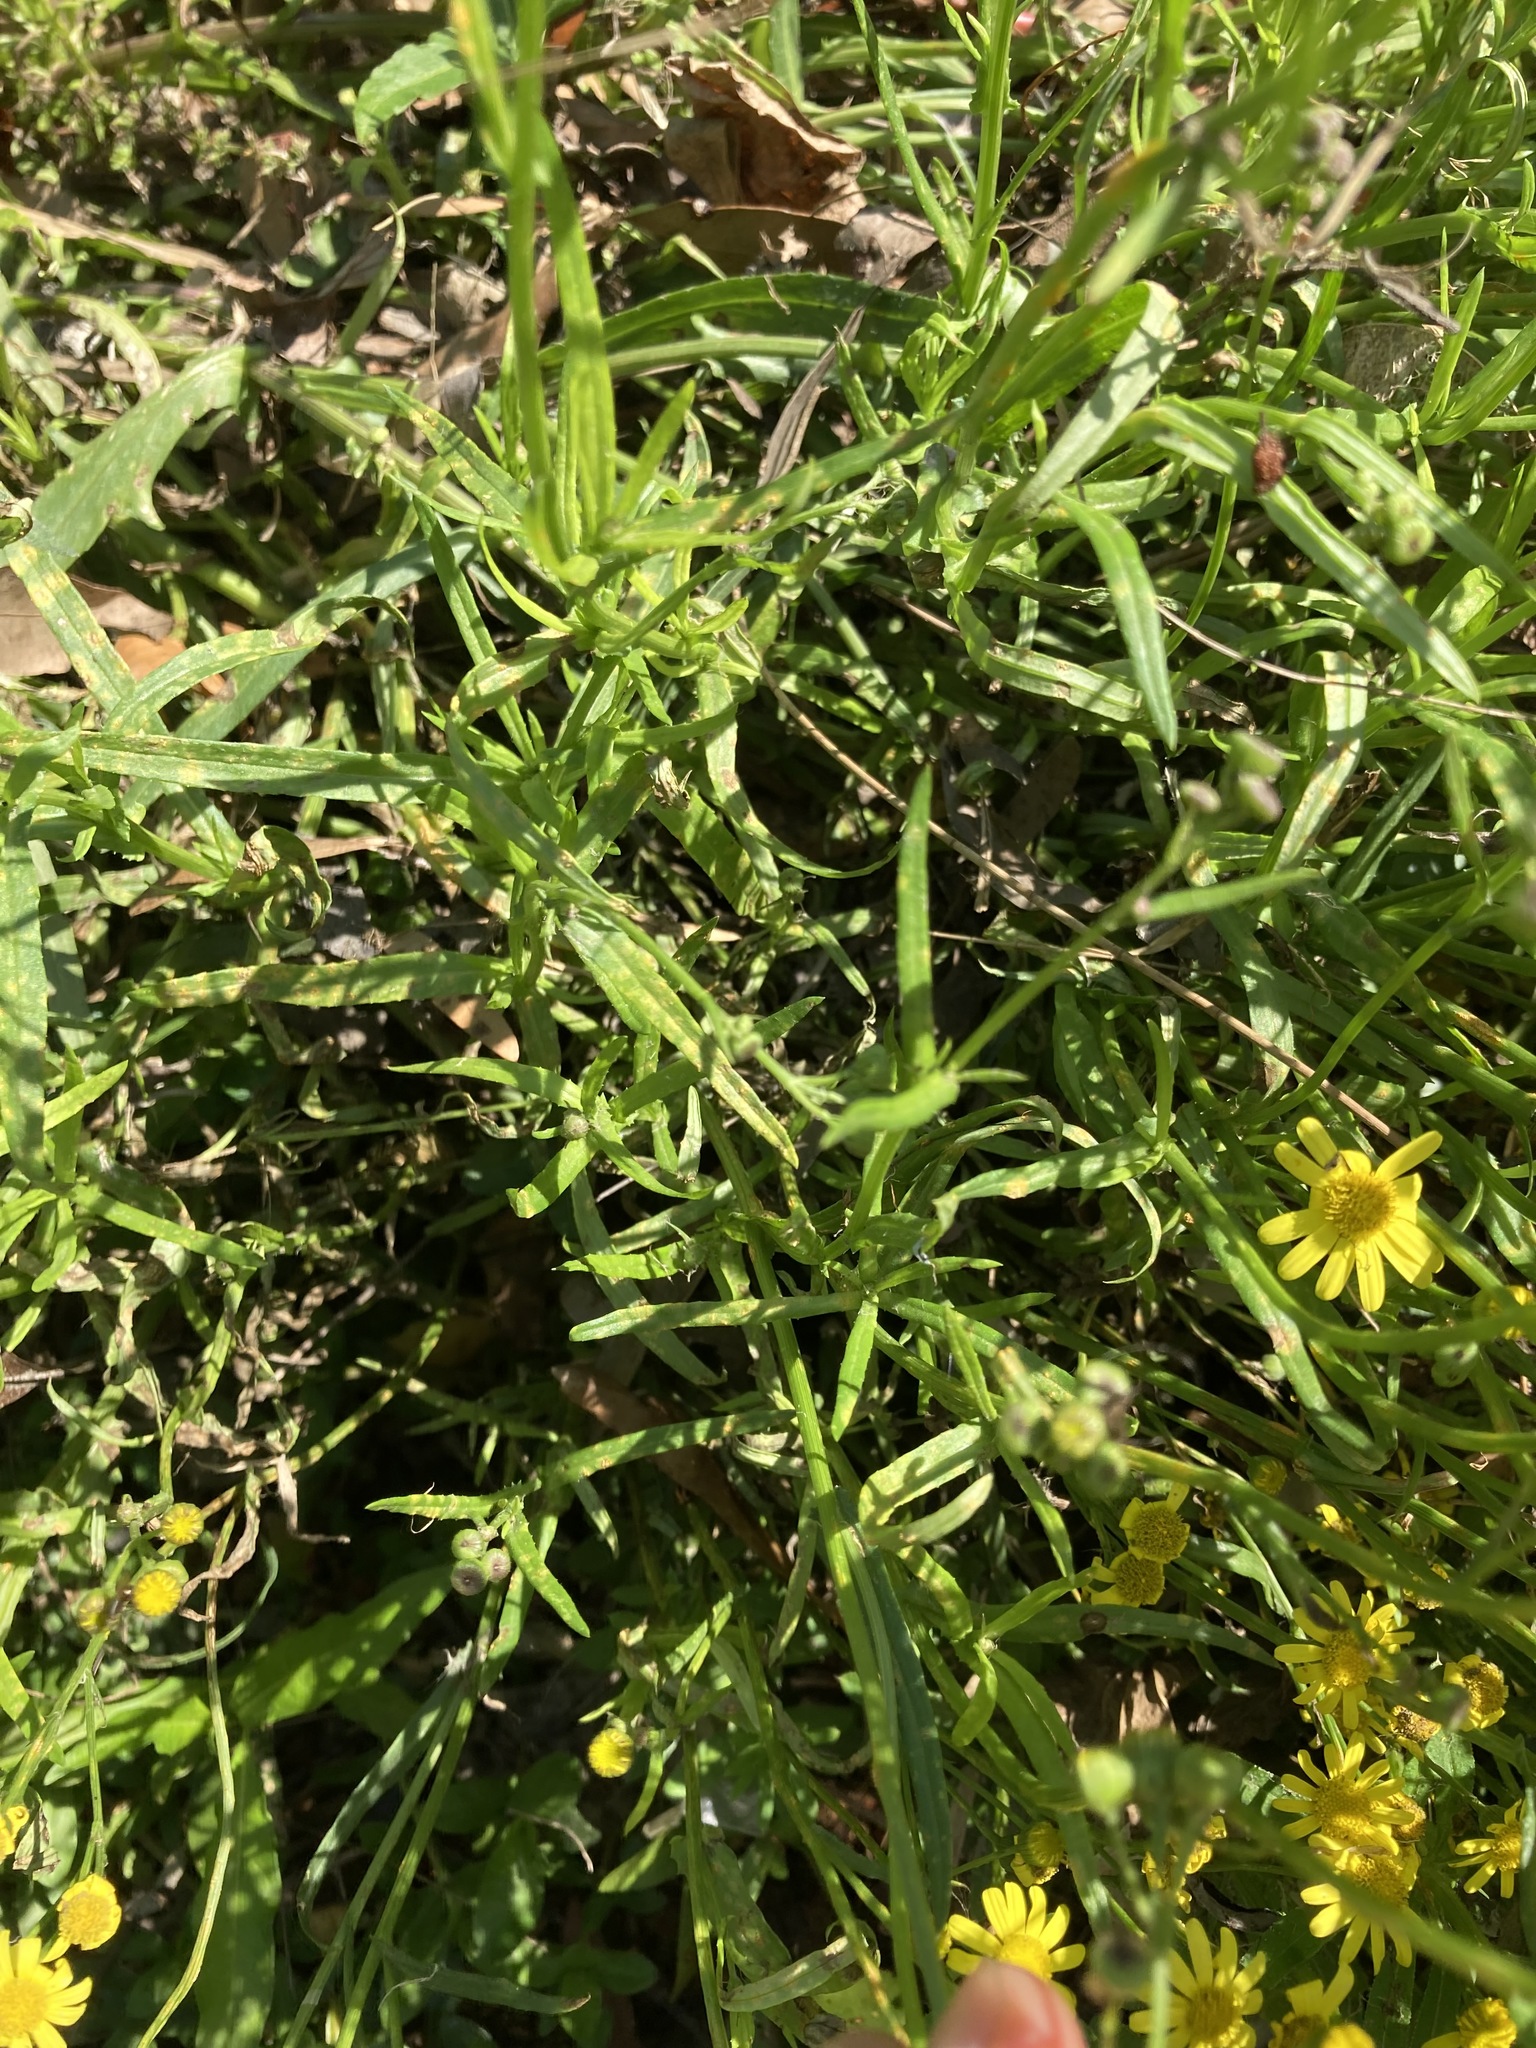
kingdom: Plantae
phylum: Tracheophyta
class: Magnoliopsida
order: Asterales
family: Asteraceae
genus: Senecio
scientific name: Senecio madagascariensis
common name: Madagascar ragwort
